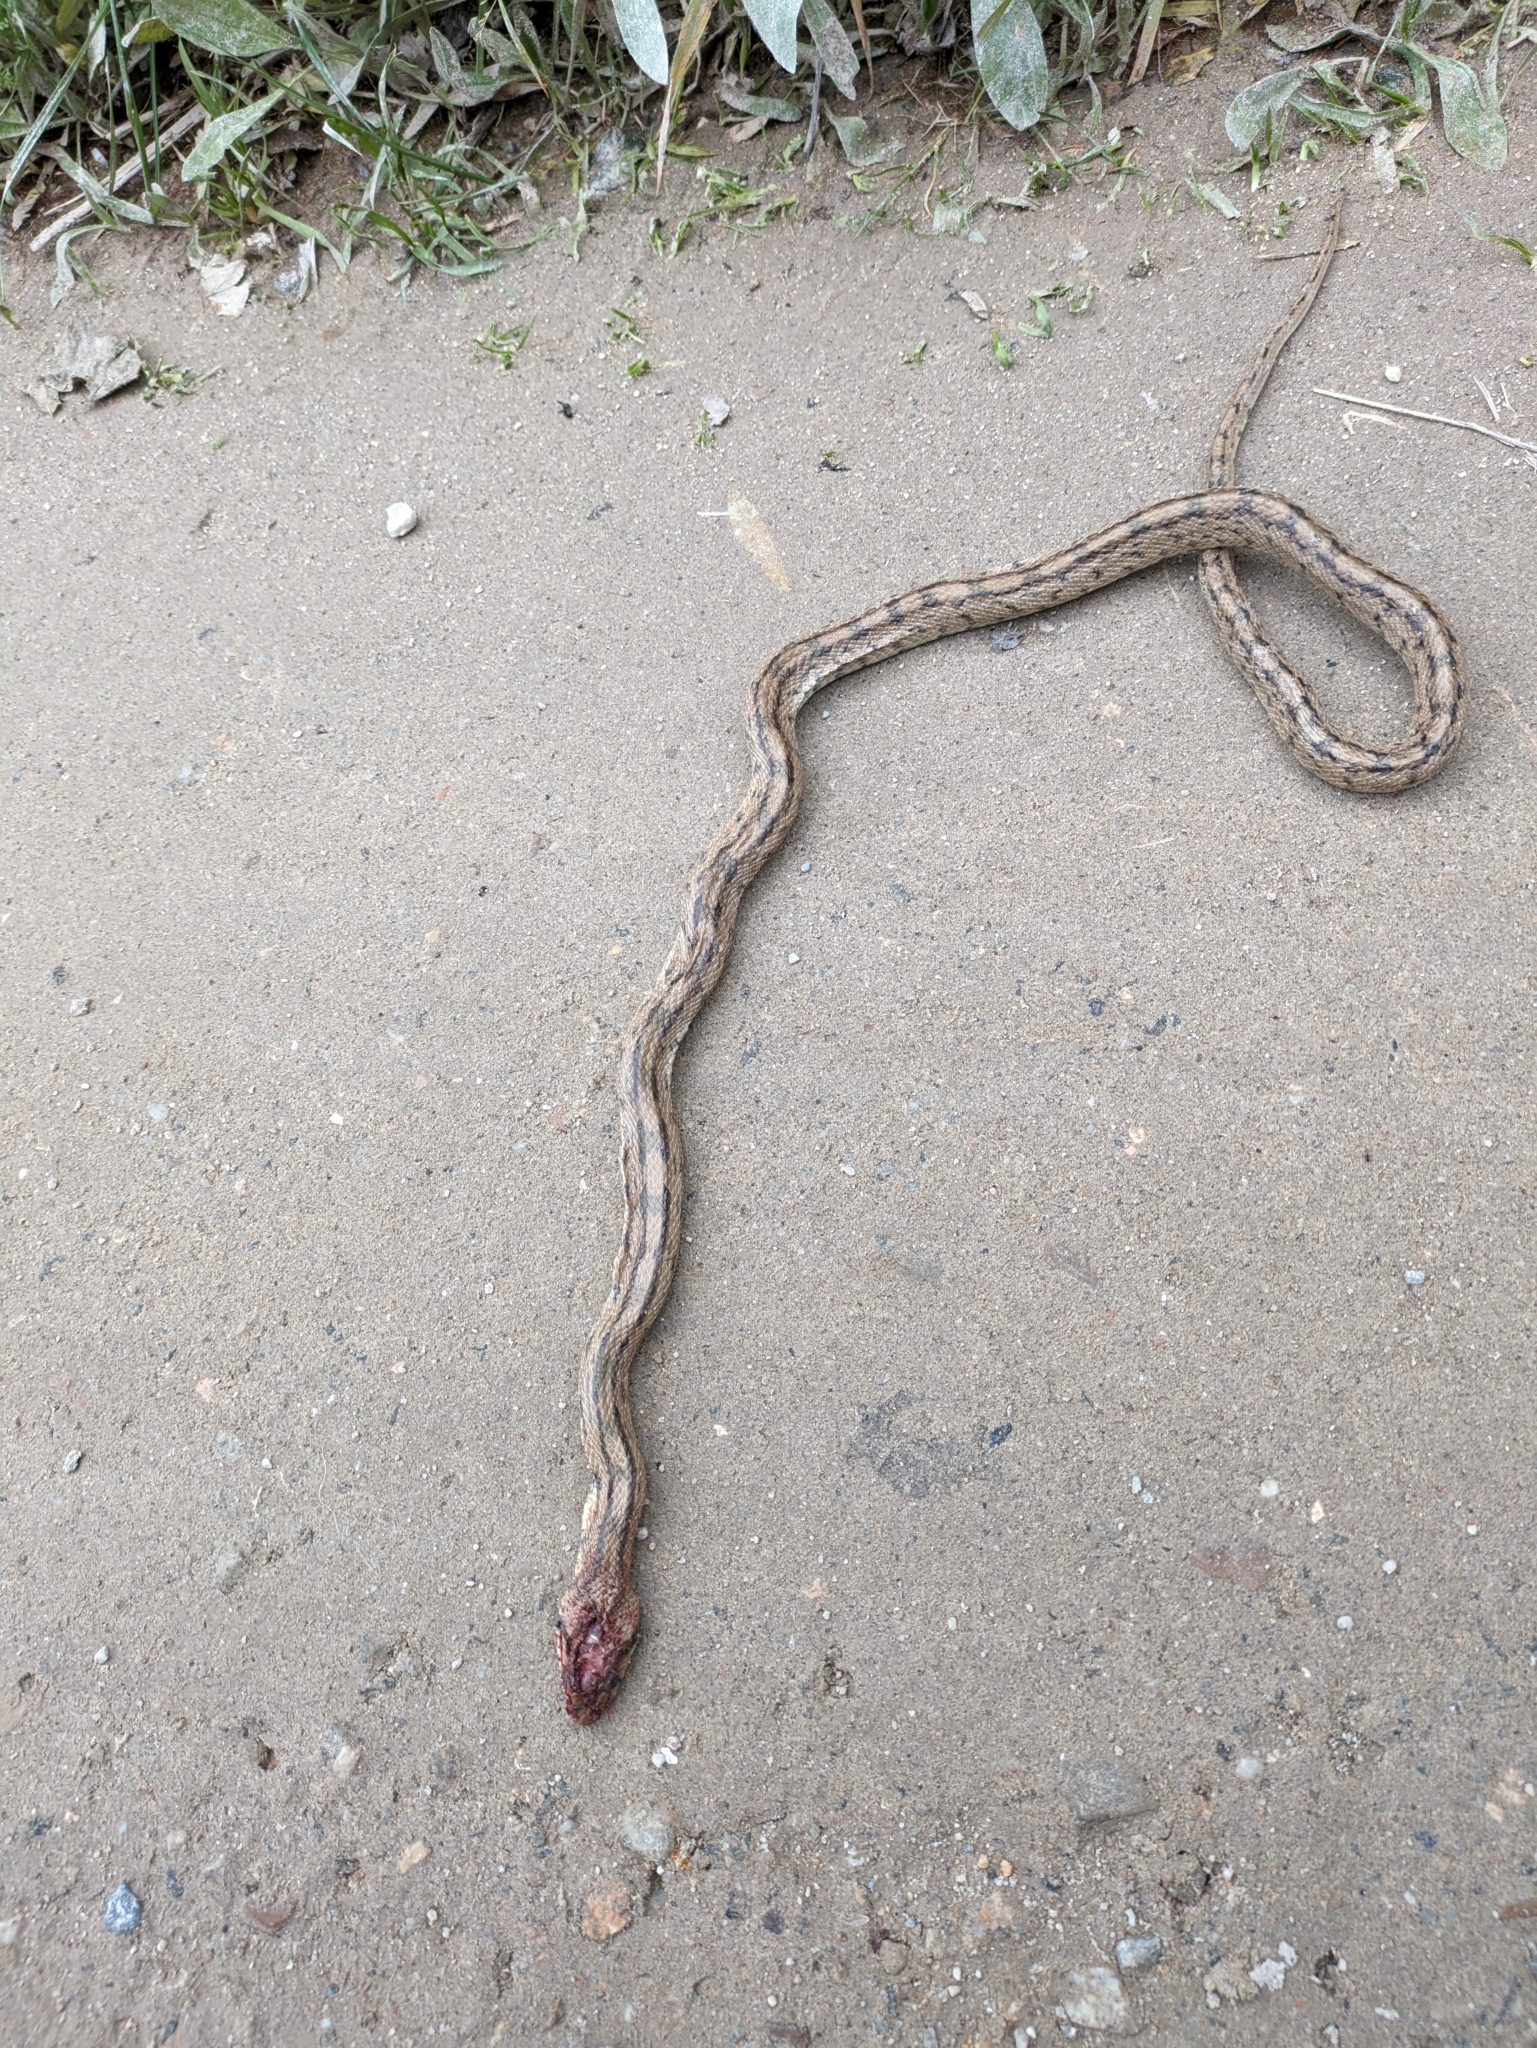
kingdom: Animalia
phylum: Chordata
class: Squamata
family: Colubridae
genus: Zamenis
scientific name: Zamenis scalaris
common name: Ladder snakes
